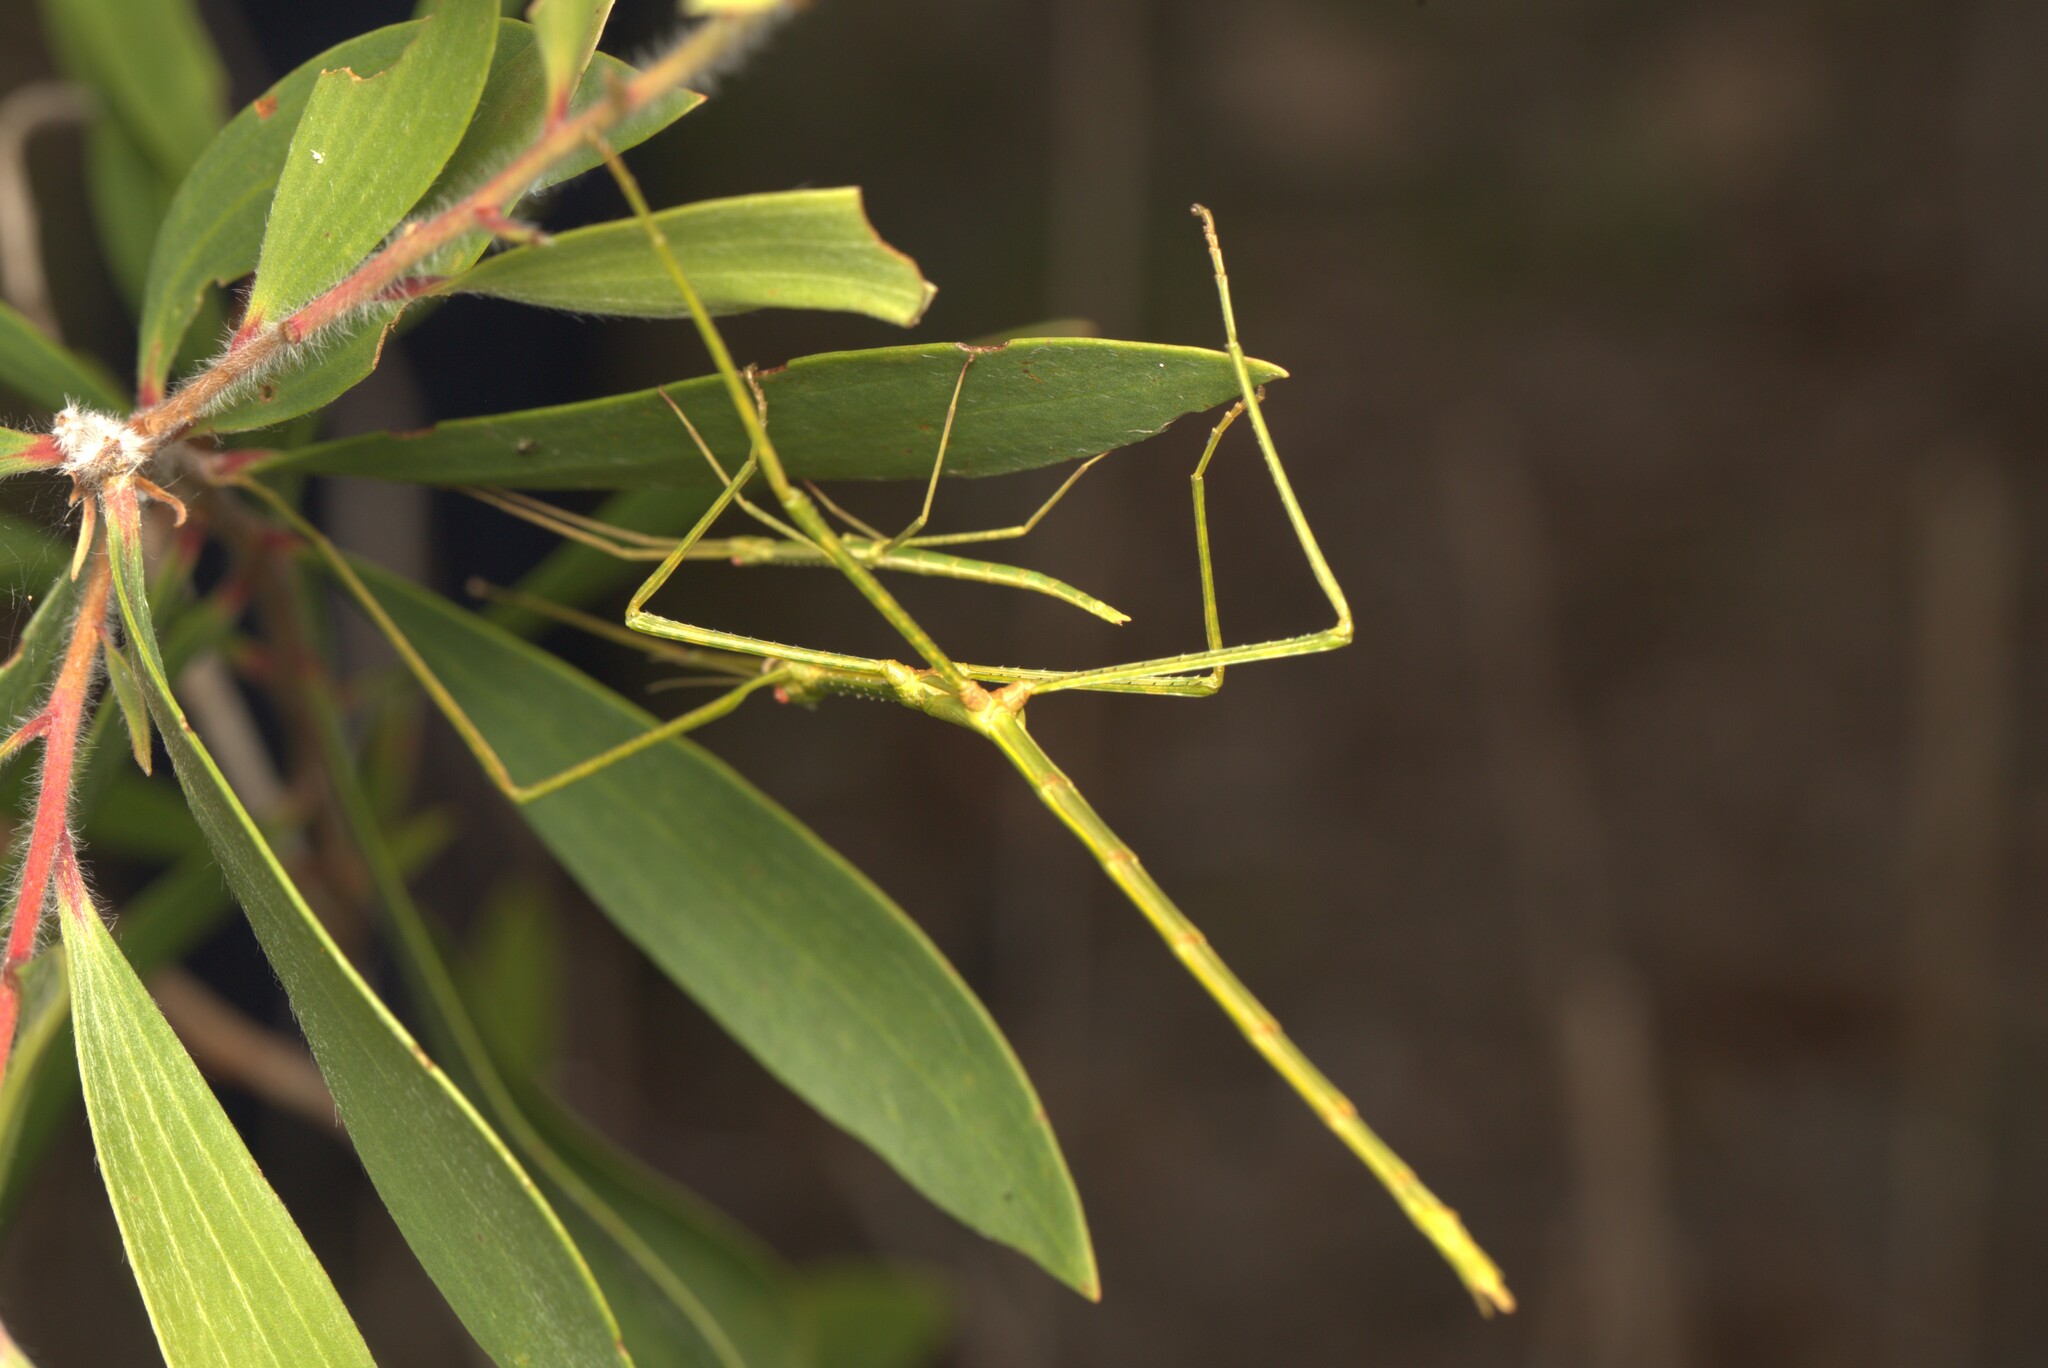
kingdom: Animalia
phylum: Arthropoda
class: Insecta
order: Phasmida
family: Phasmatidae
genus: Anchiale
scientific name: Anchiale austrotessulata
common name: Tessellated stick-insect
